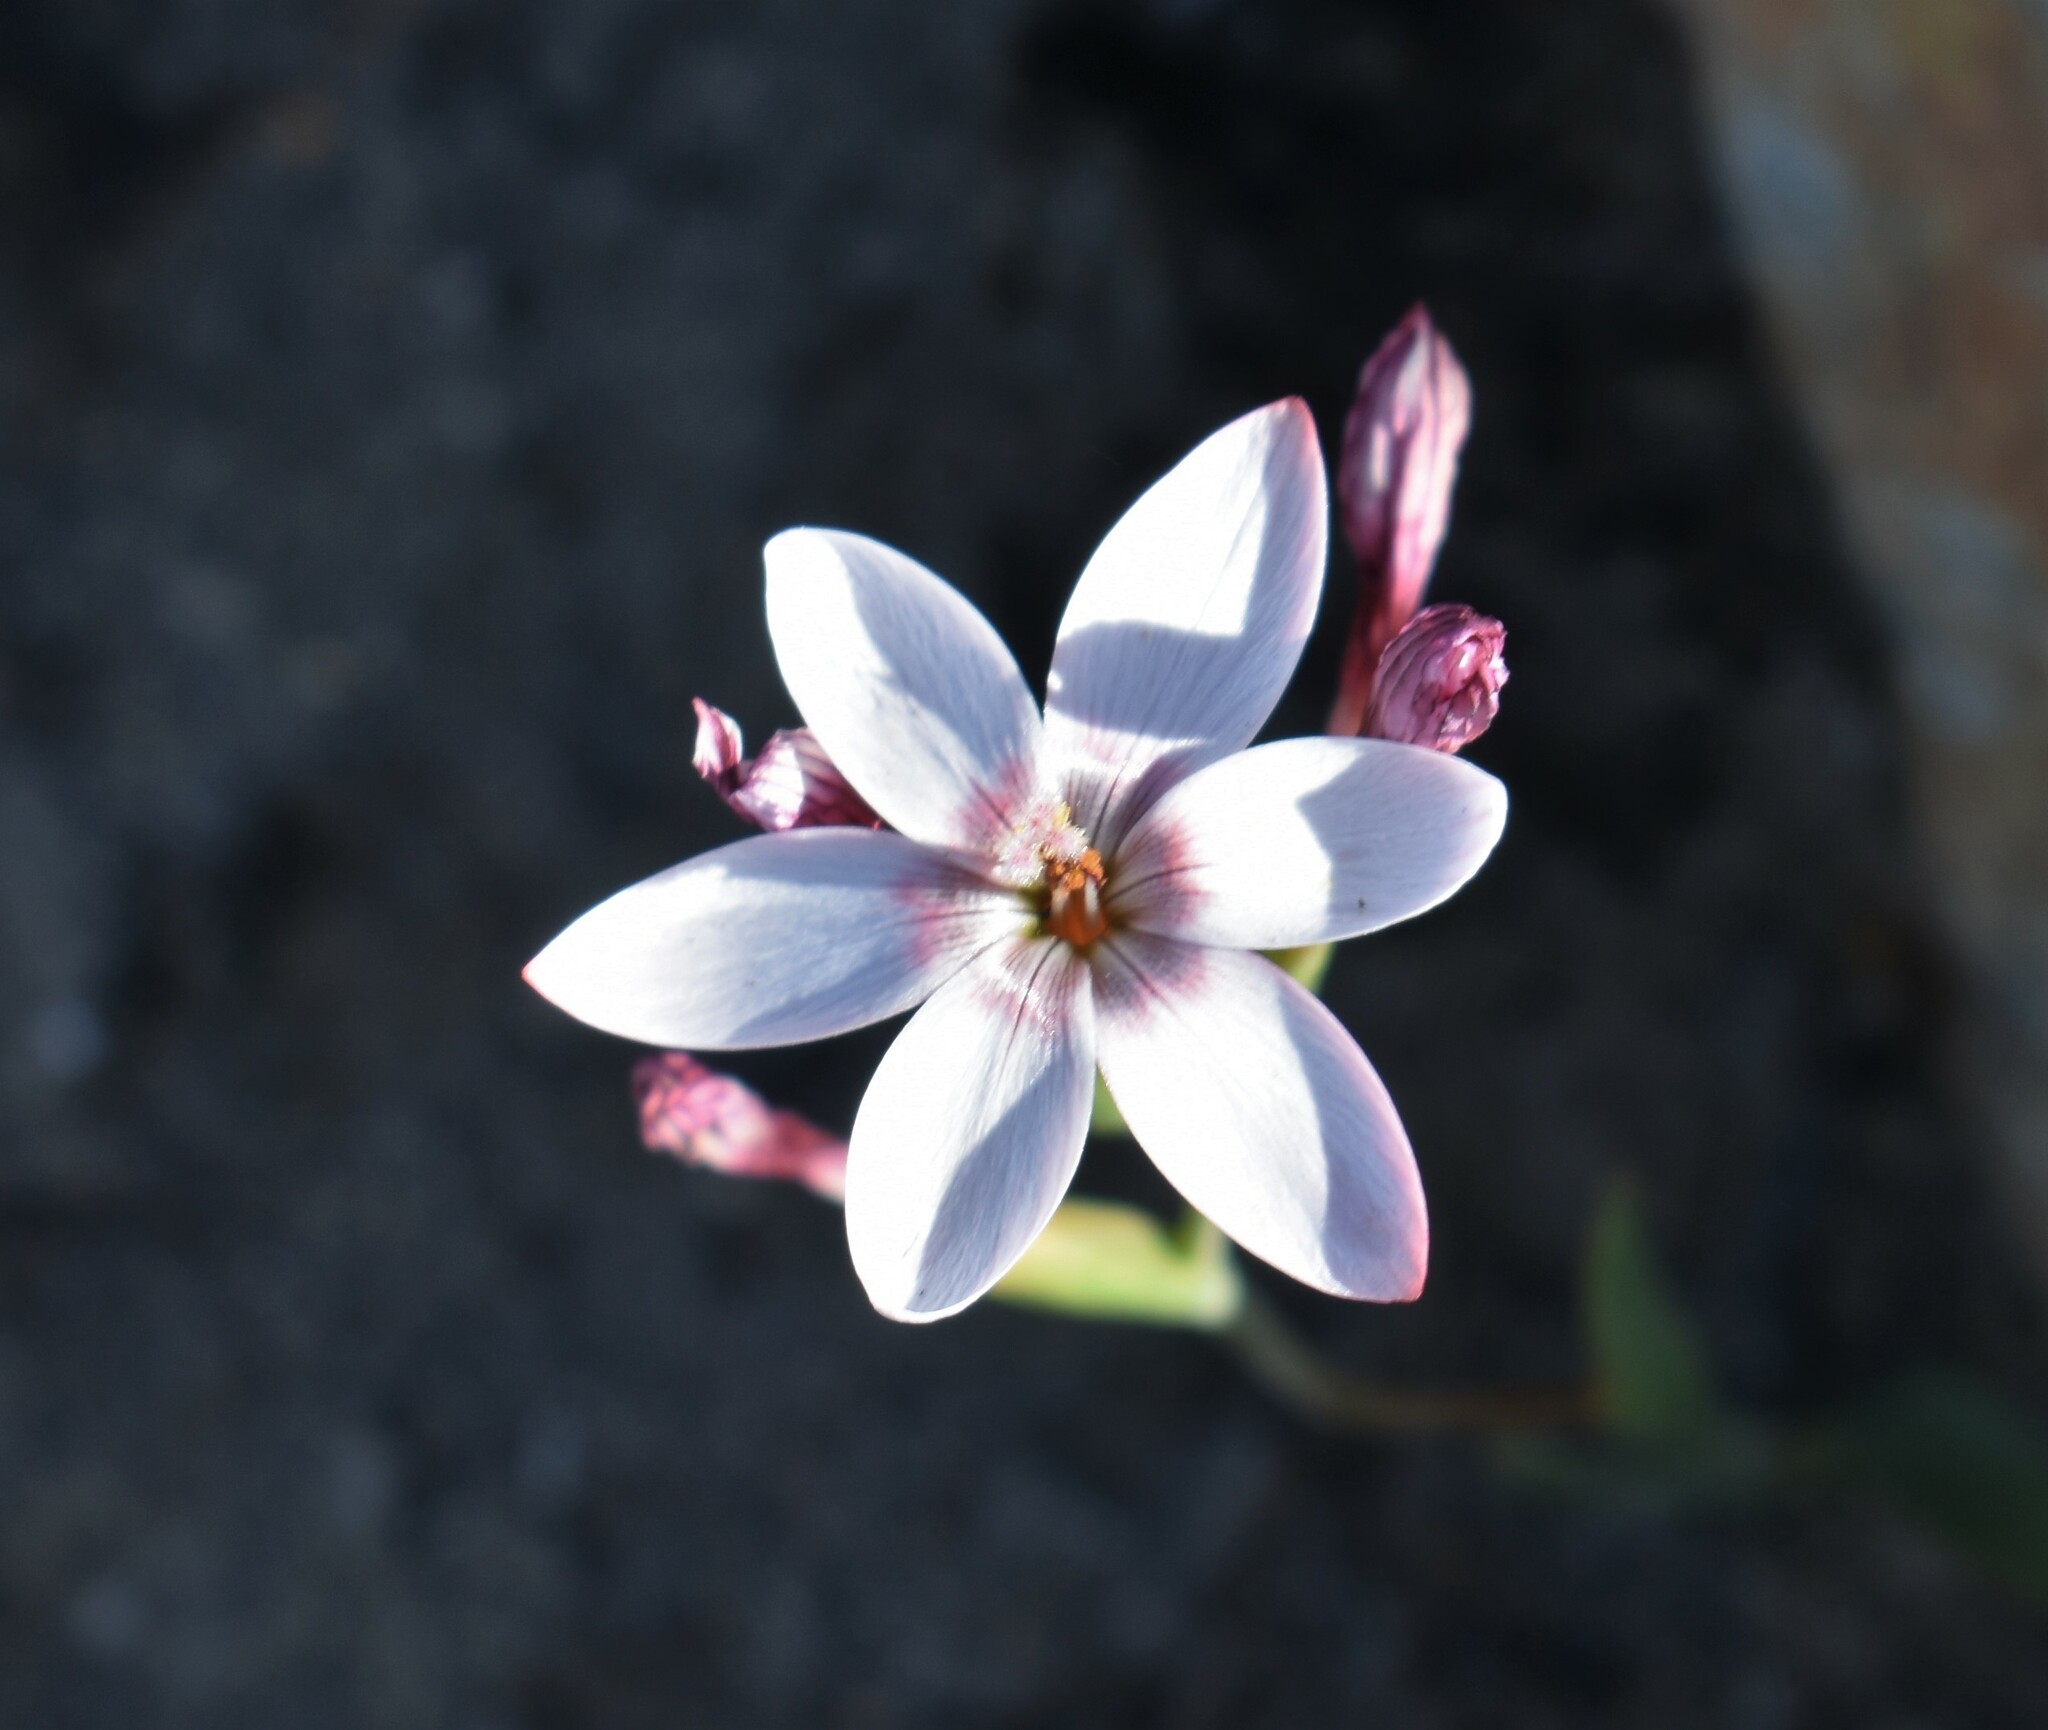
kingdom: Plantae
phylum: Tracheophyta
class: Liliopsida
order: Asparagales
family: Iridaceae
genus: Geissorhiza
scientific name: Geissorhiza ovata
